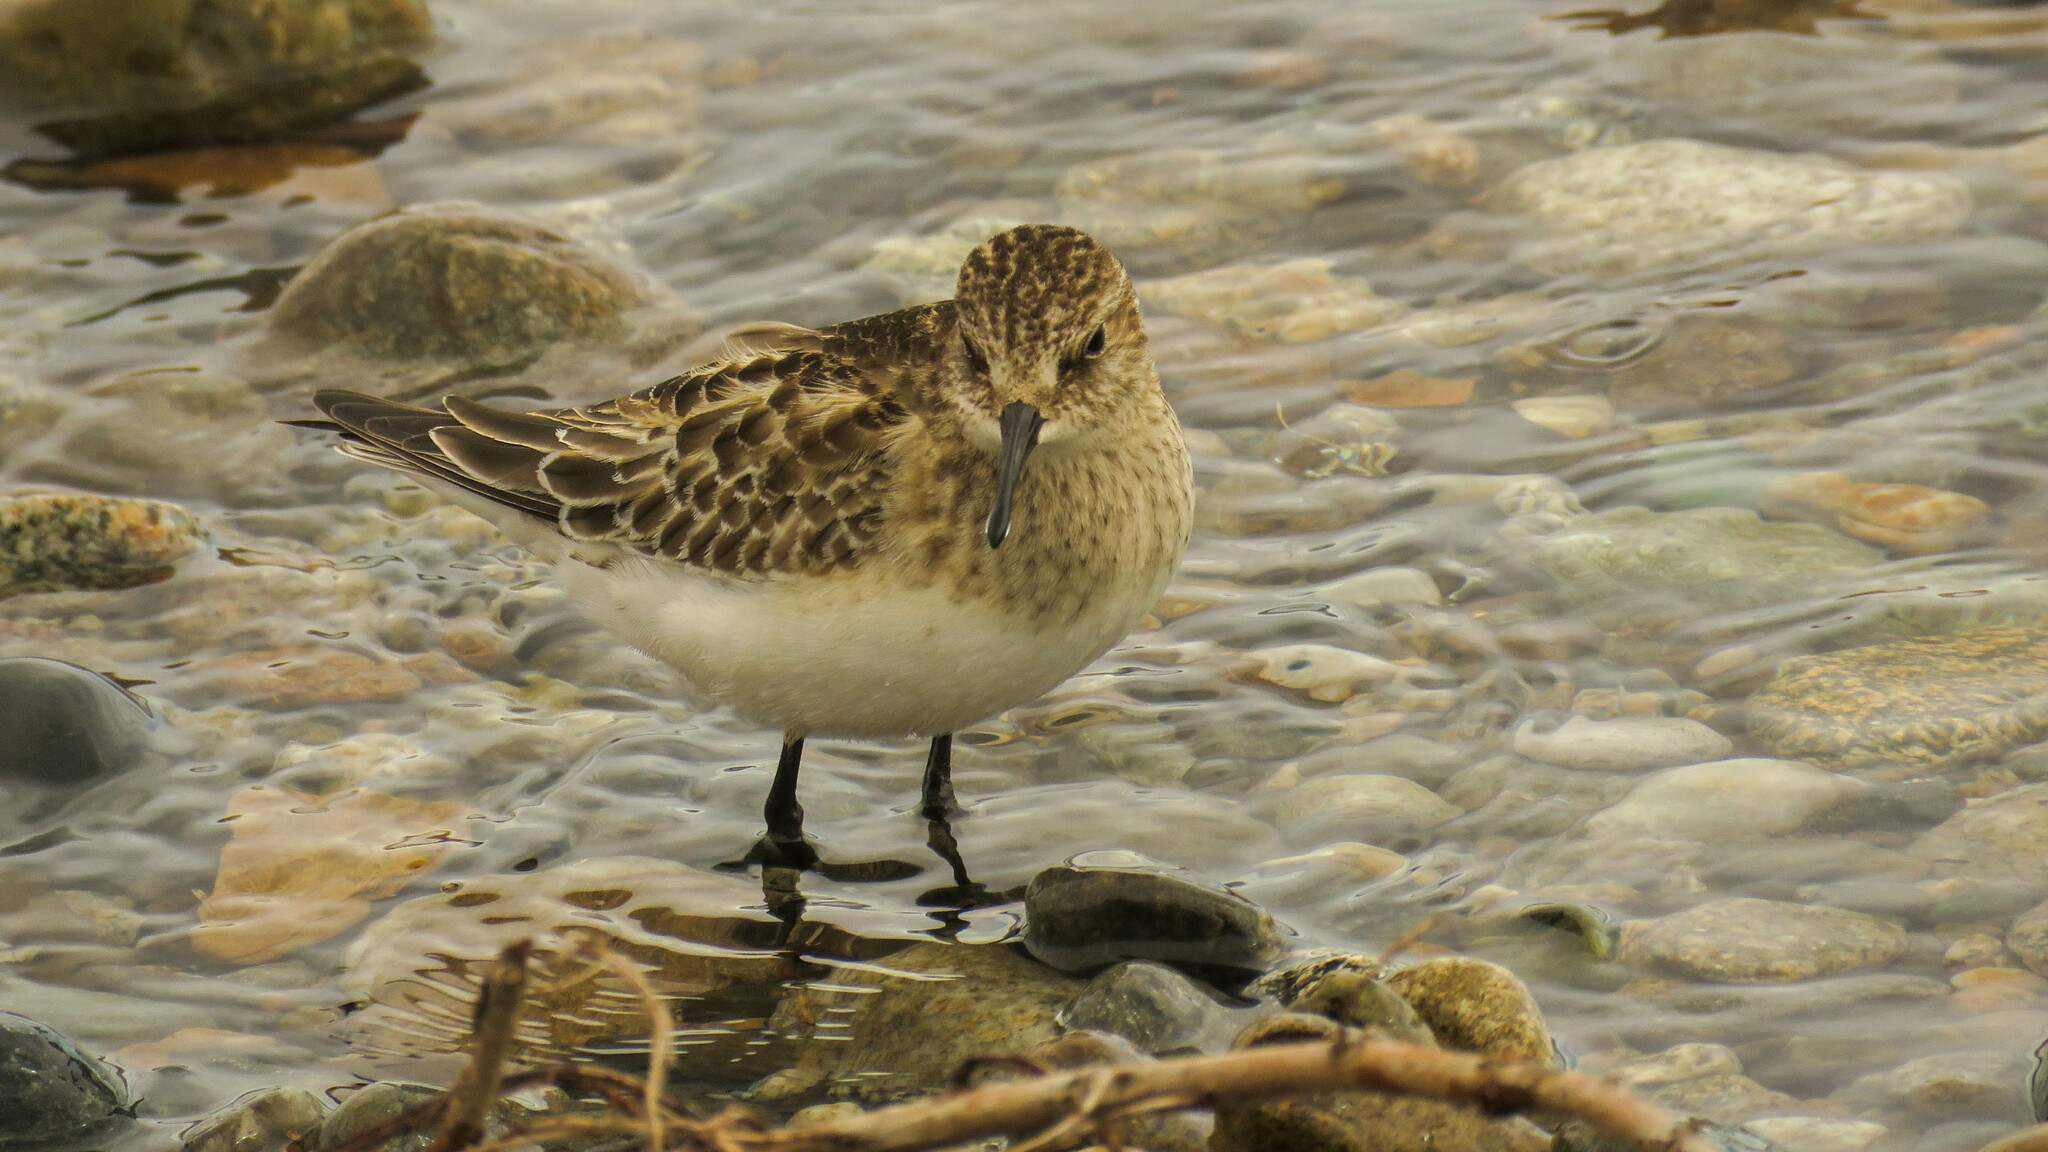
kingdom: Animalia
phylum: Chordata
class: Aves
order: Charadriiformes
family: Scolopacidae
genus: Calidris
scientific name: Calidris bairdii
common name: Baird's sandpiper
